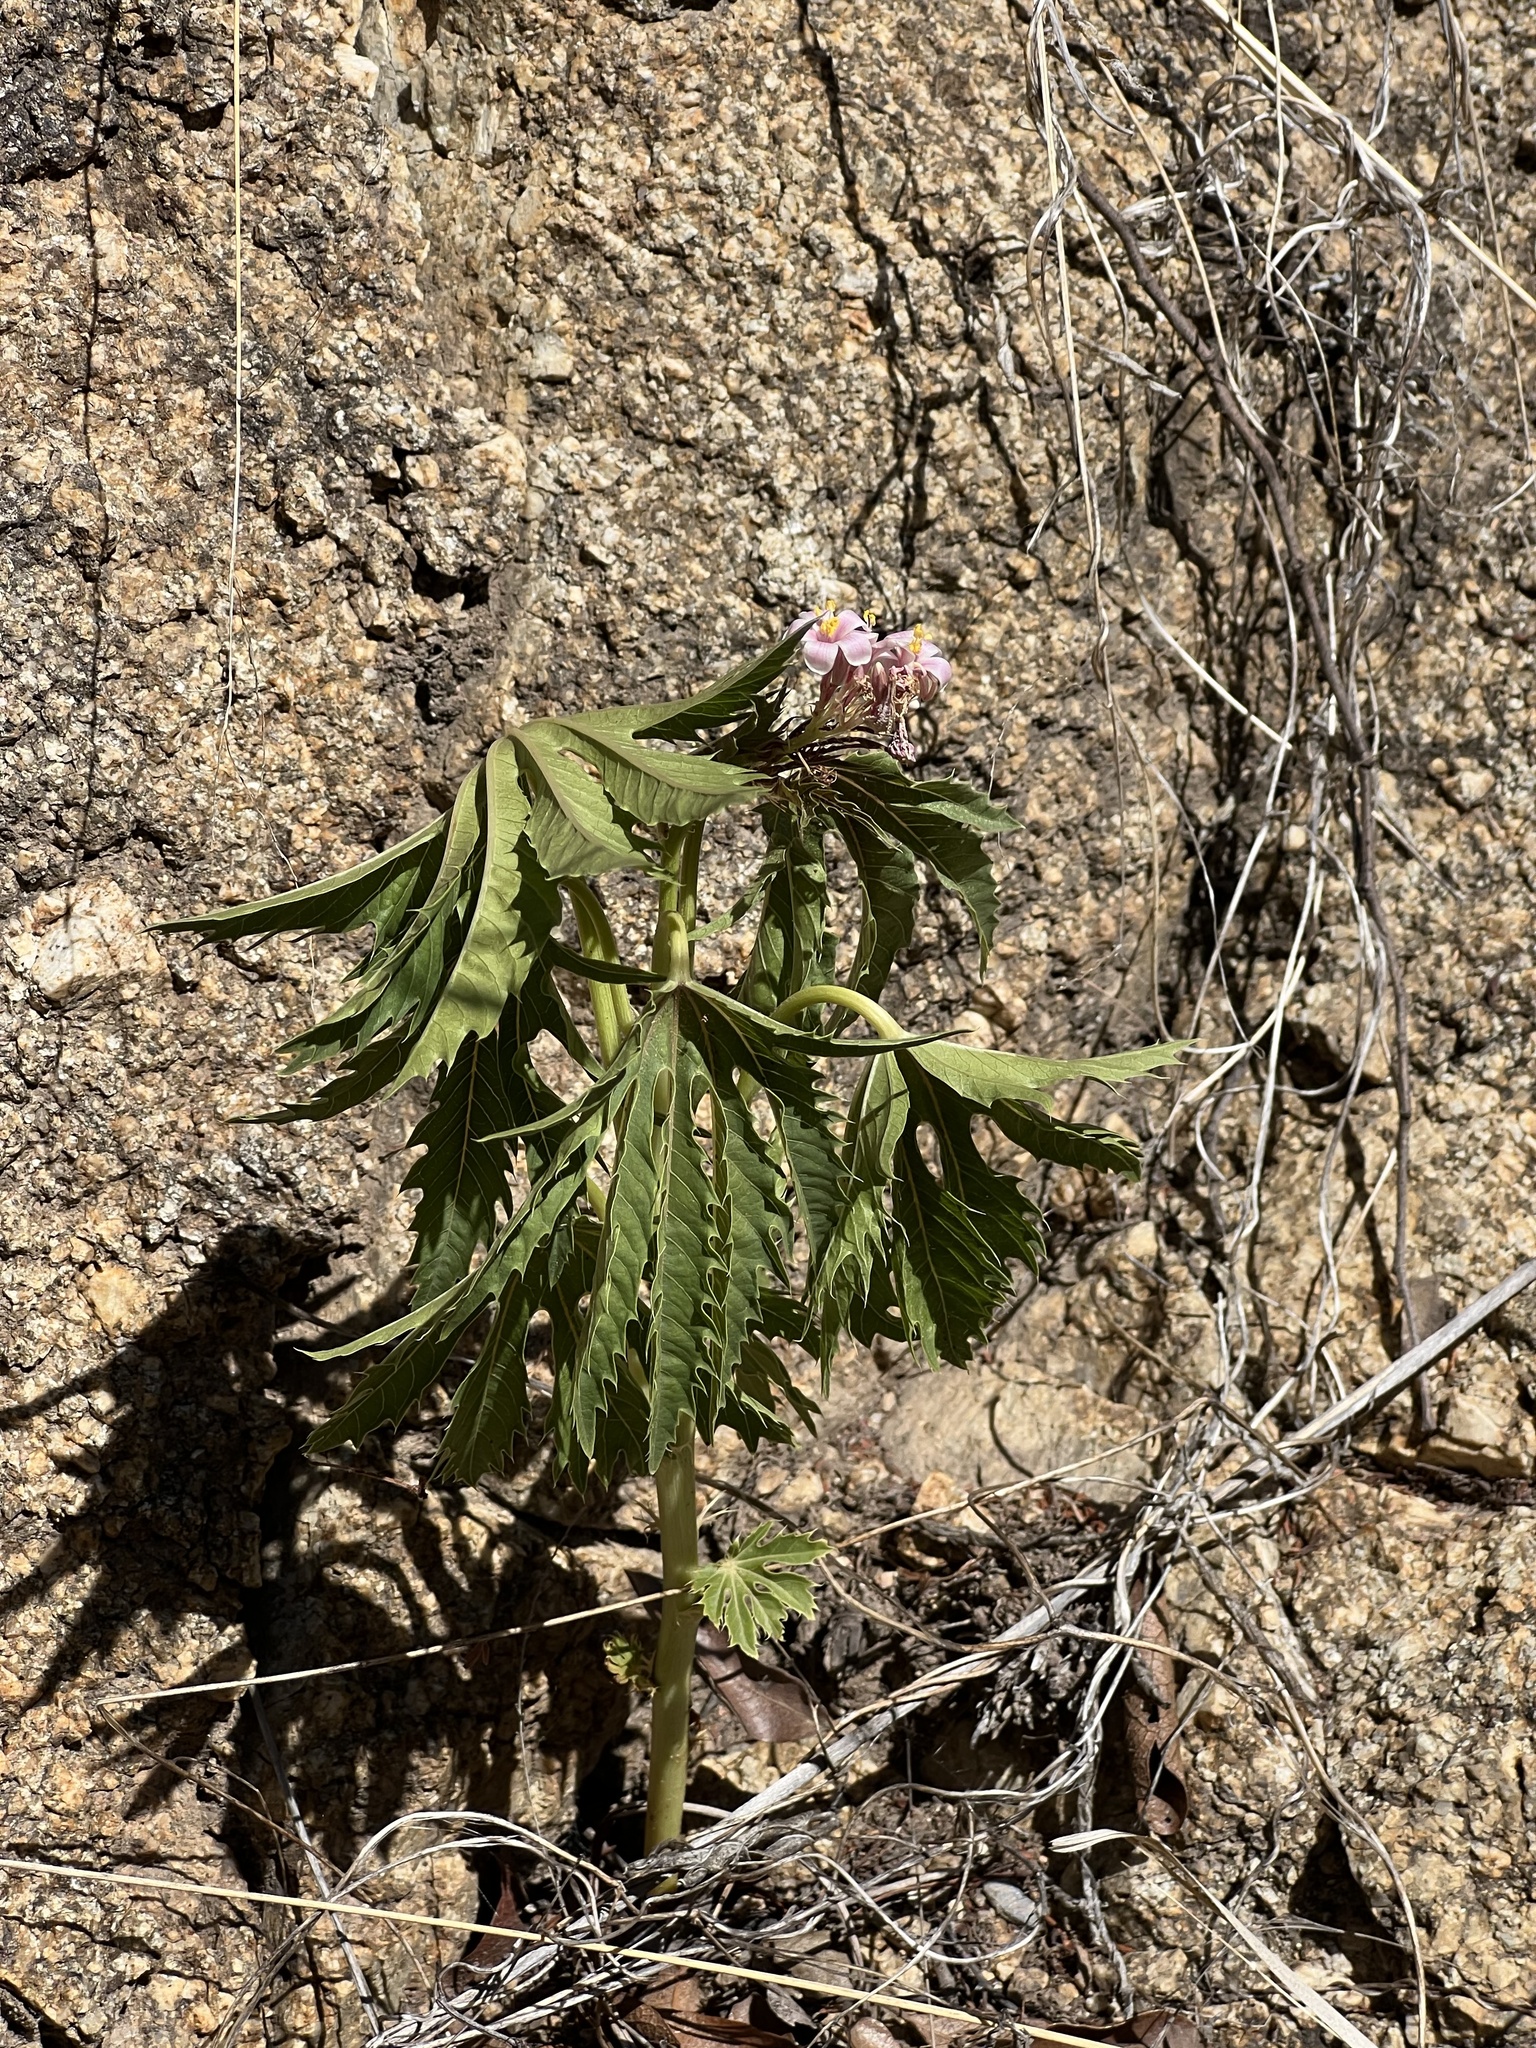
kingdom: Plantae
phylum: Tracheophyta
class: Magnoliopsida
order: Malpighiales
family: Euphorbiaceae
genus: Jatropha
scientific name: Jatropha macrorhiza
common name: Ragged nettlespurge
